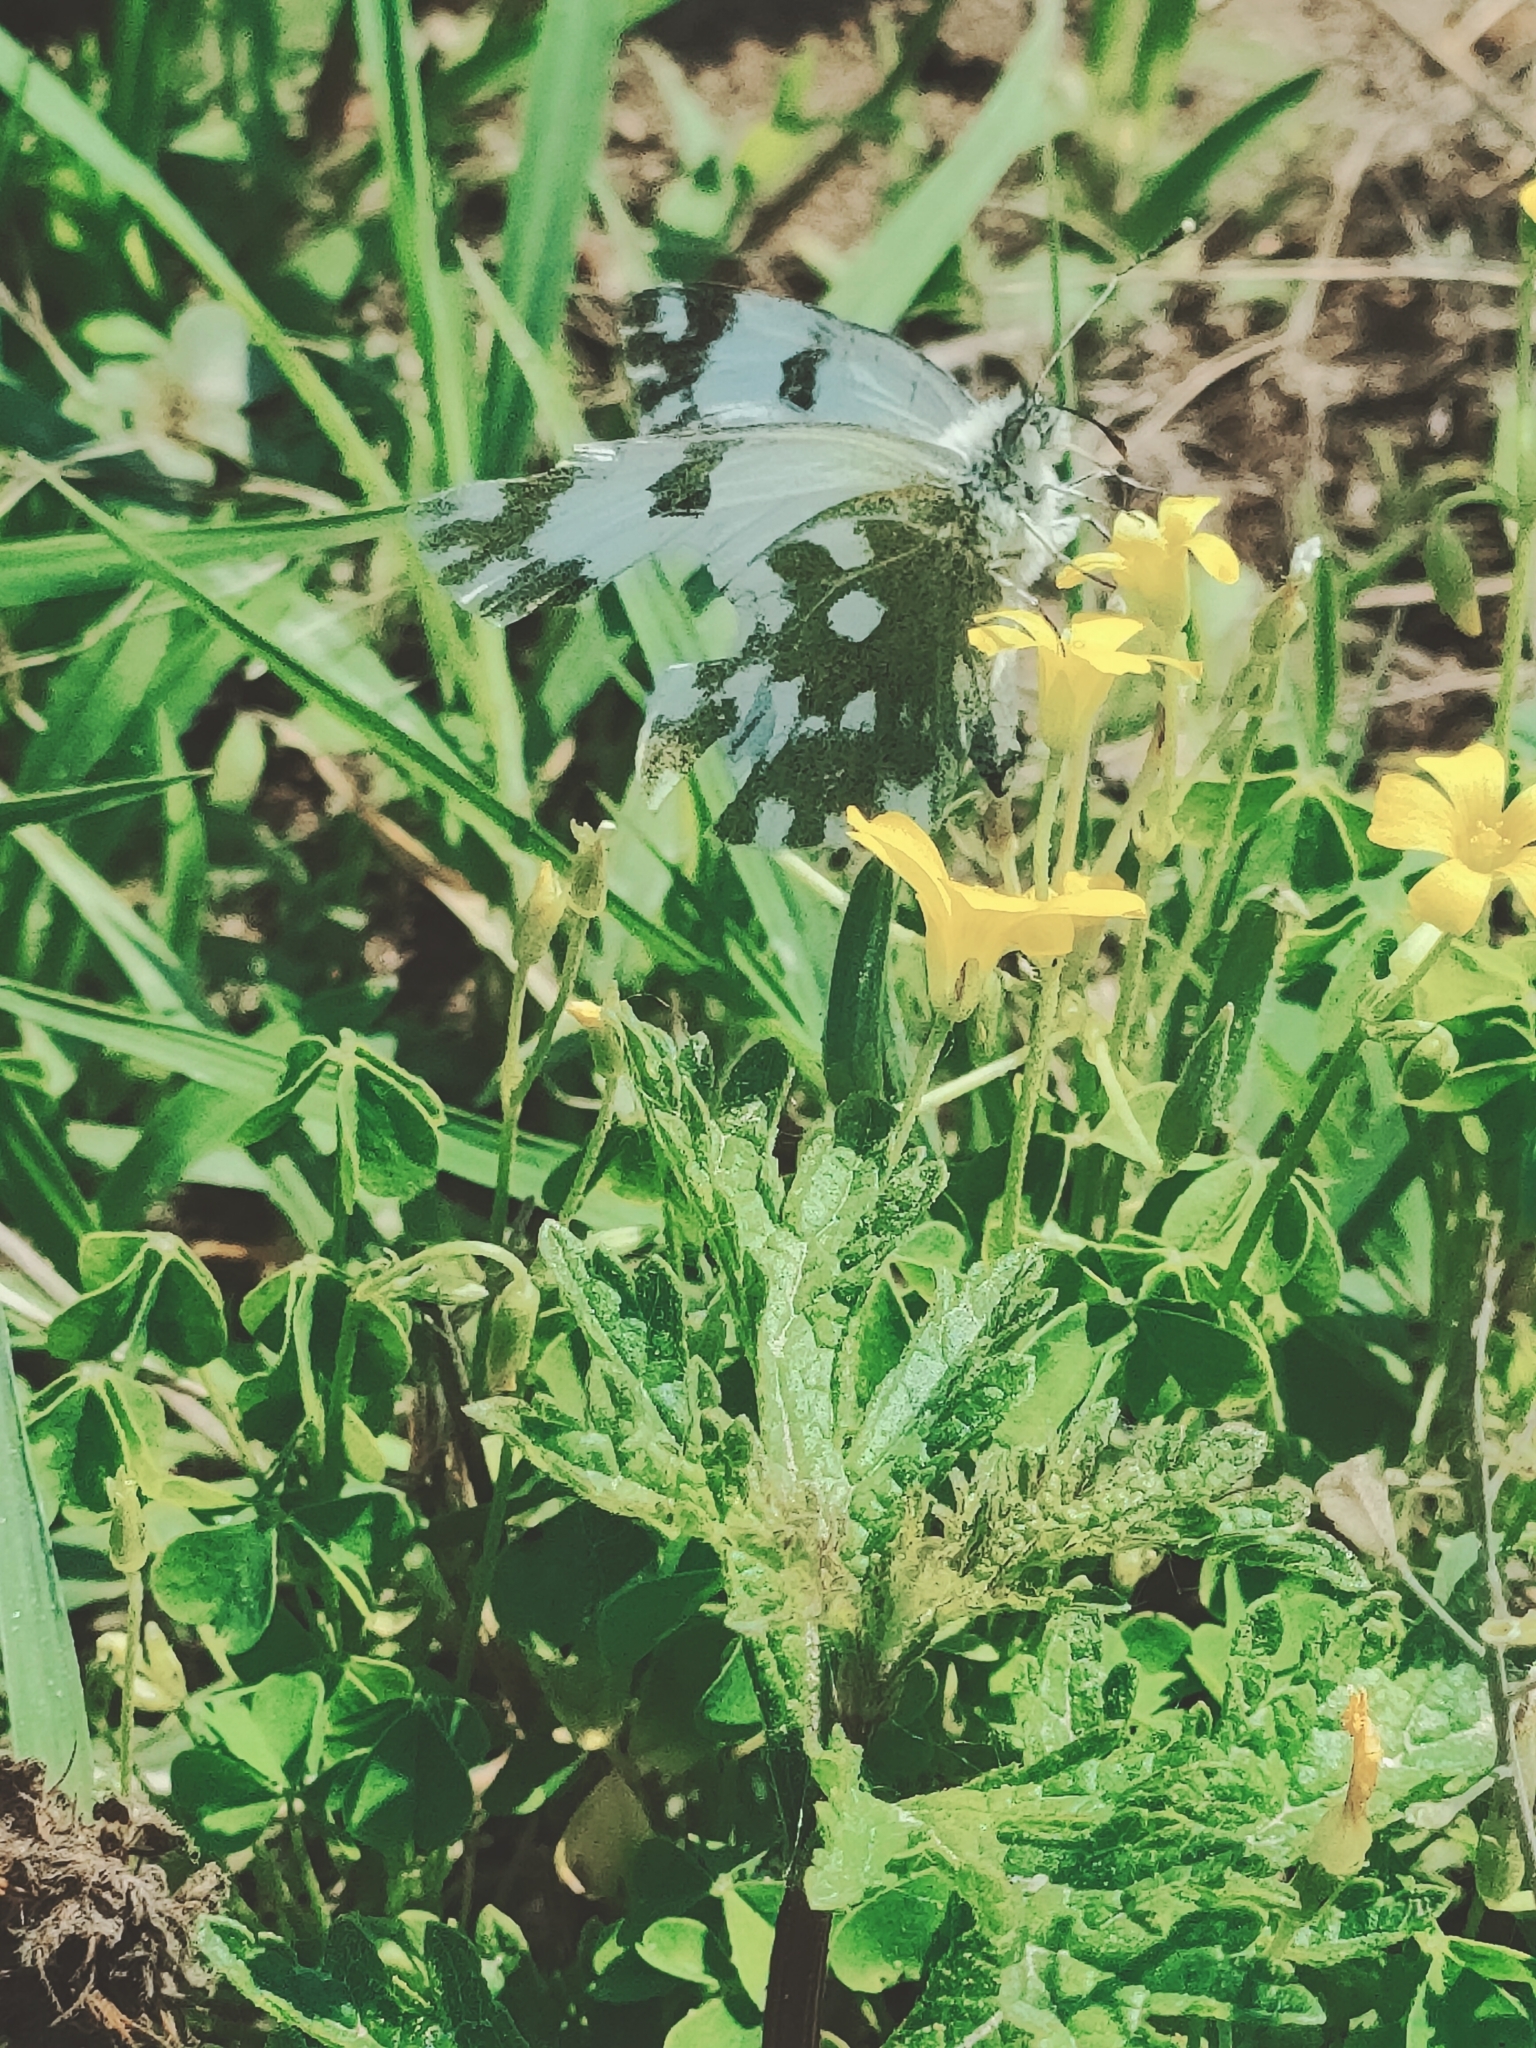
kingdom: Animalia
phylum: Arthropoda
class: Insecta
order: Lepidoptera
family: Pieridae
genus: Pontia
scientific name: Pontia edusa
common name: Eastern bath white
